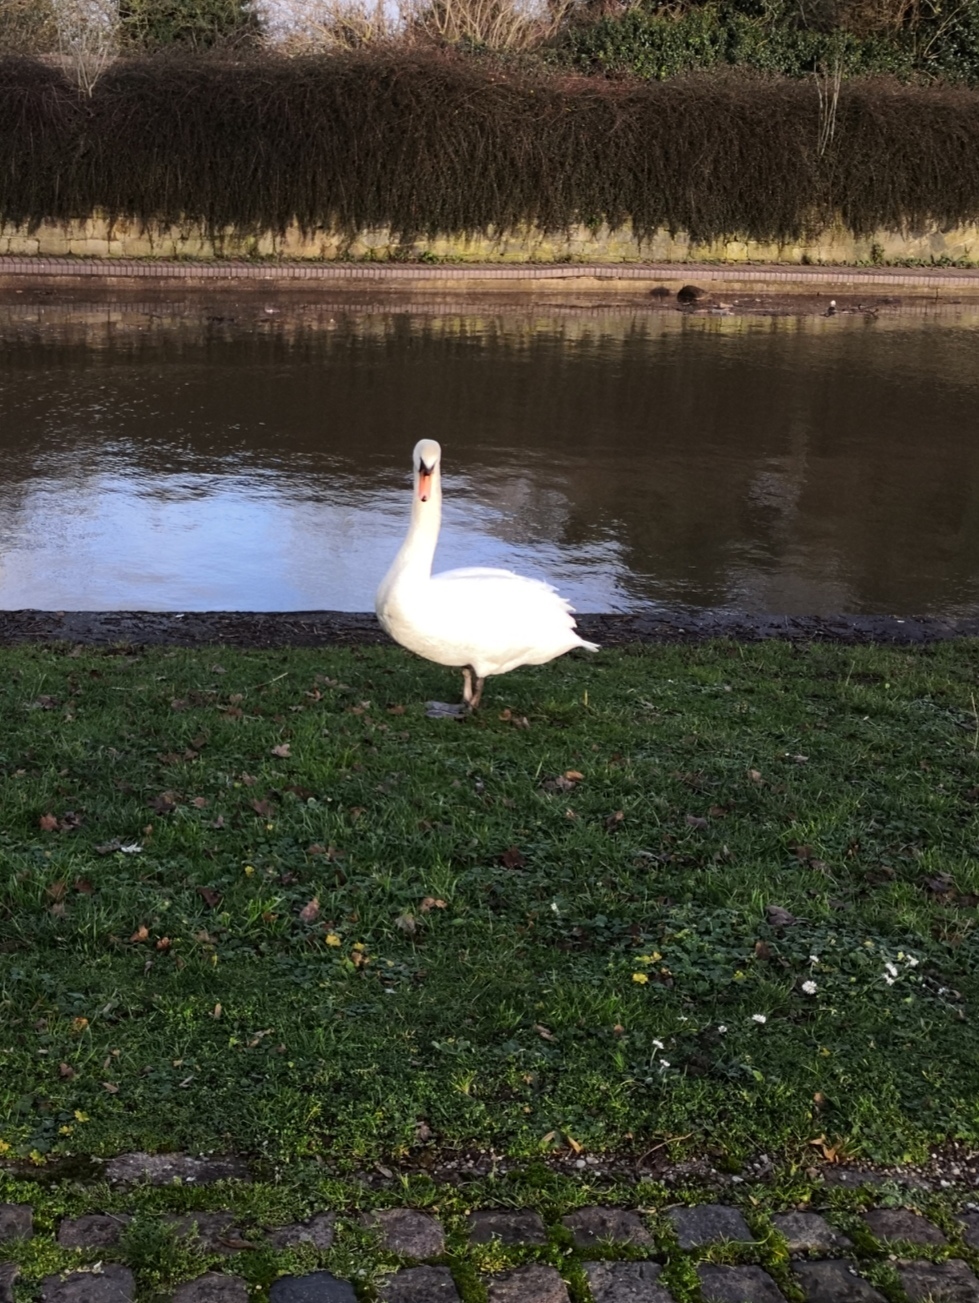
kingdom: Animalia
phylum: Chordata
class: Aves
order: Anseriformes
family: Anatidae
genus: Cygnus
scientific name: Cygnus olor
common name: Mute swan
